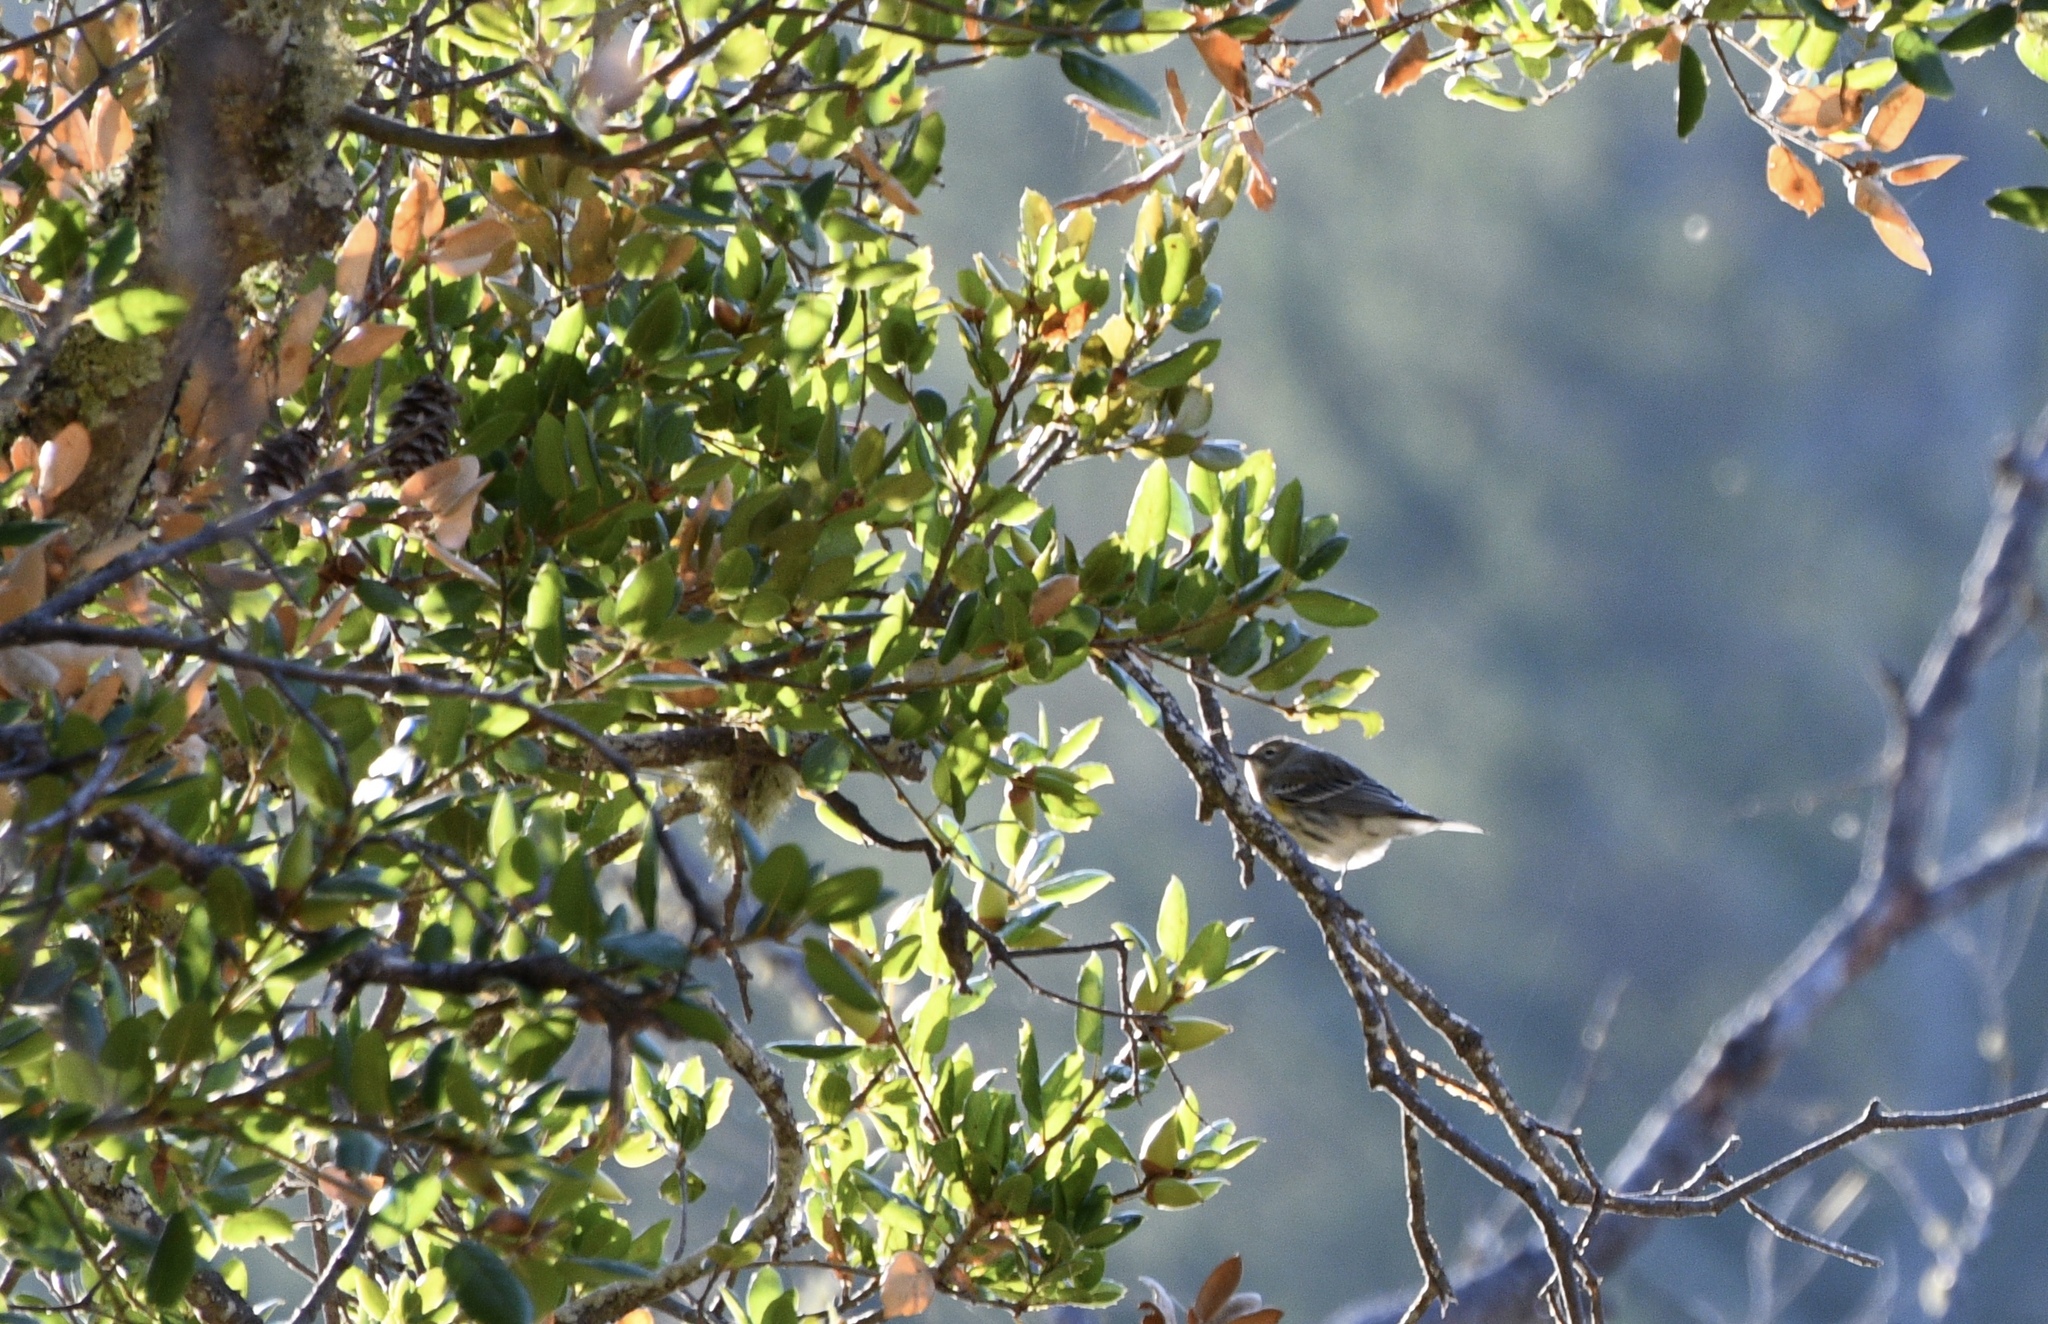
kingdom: Animalia
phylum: Chordata
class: Aves
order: Passeriformes
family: Parulidae
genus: Setophaga
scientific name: Setophaga coronata
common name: Myrtle warbler
